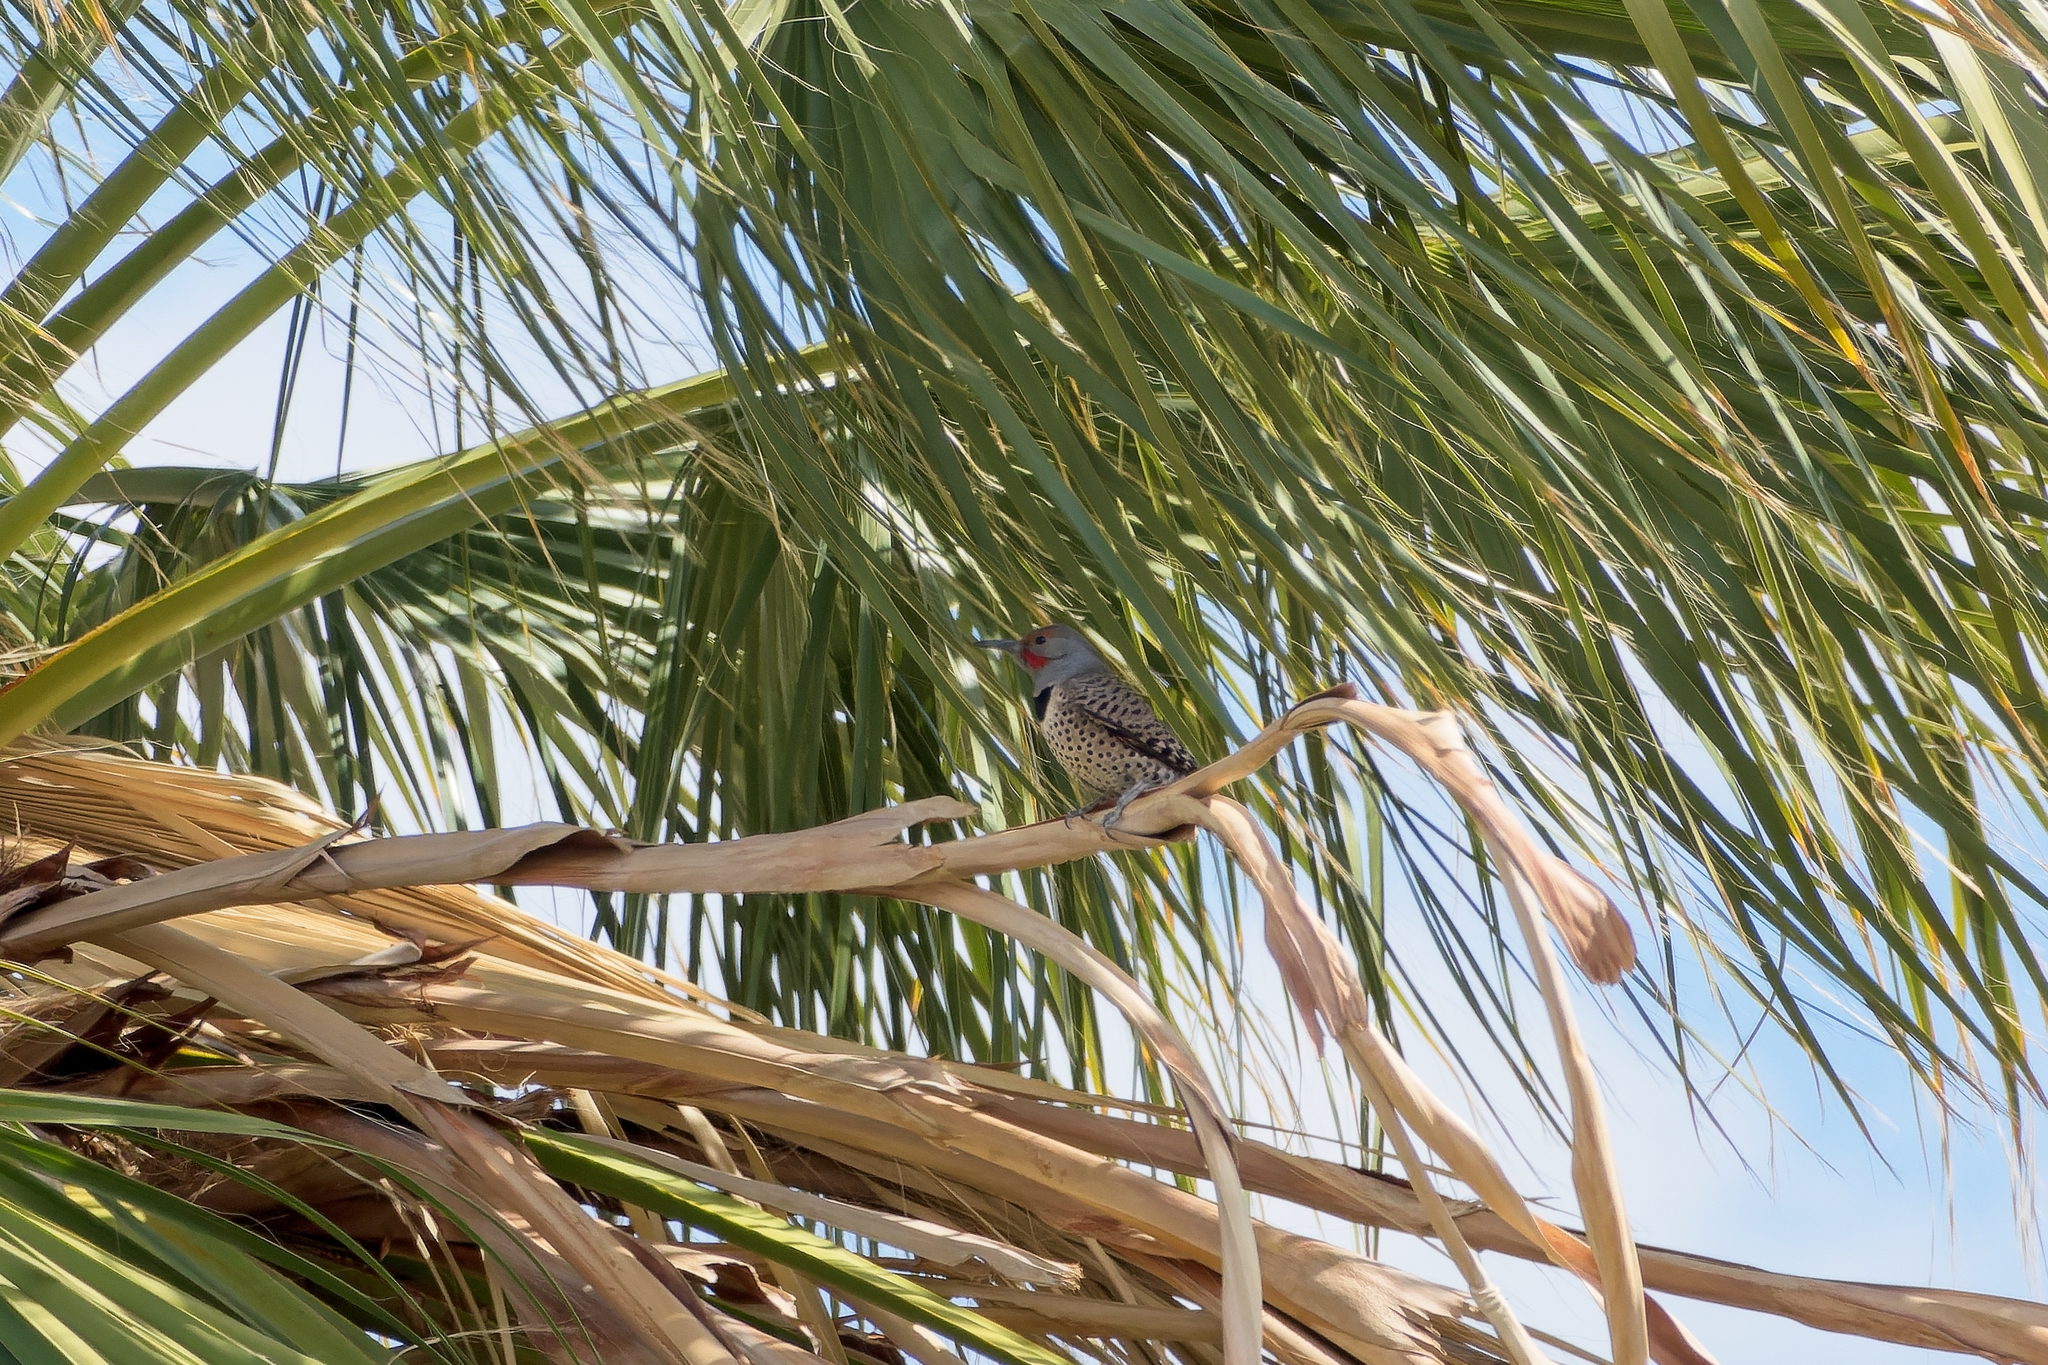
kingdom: Animalia
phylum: Chordata
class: Aves
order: Piciformes
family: Picidae
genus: Colaptes
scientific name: Colaptes auratus
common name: Northern flicker
